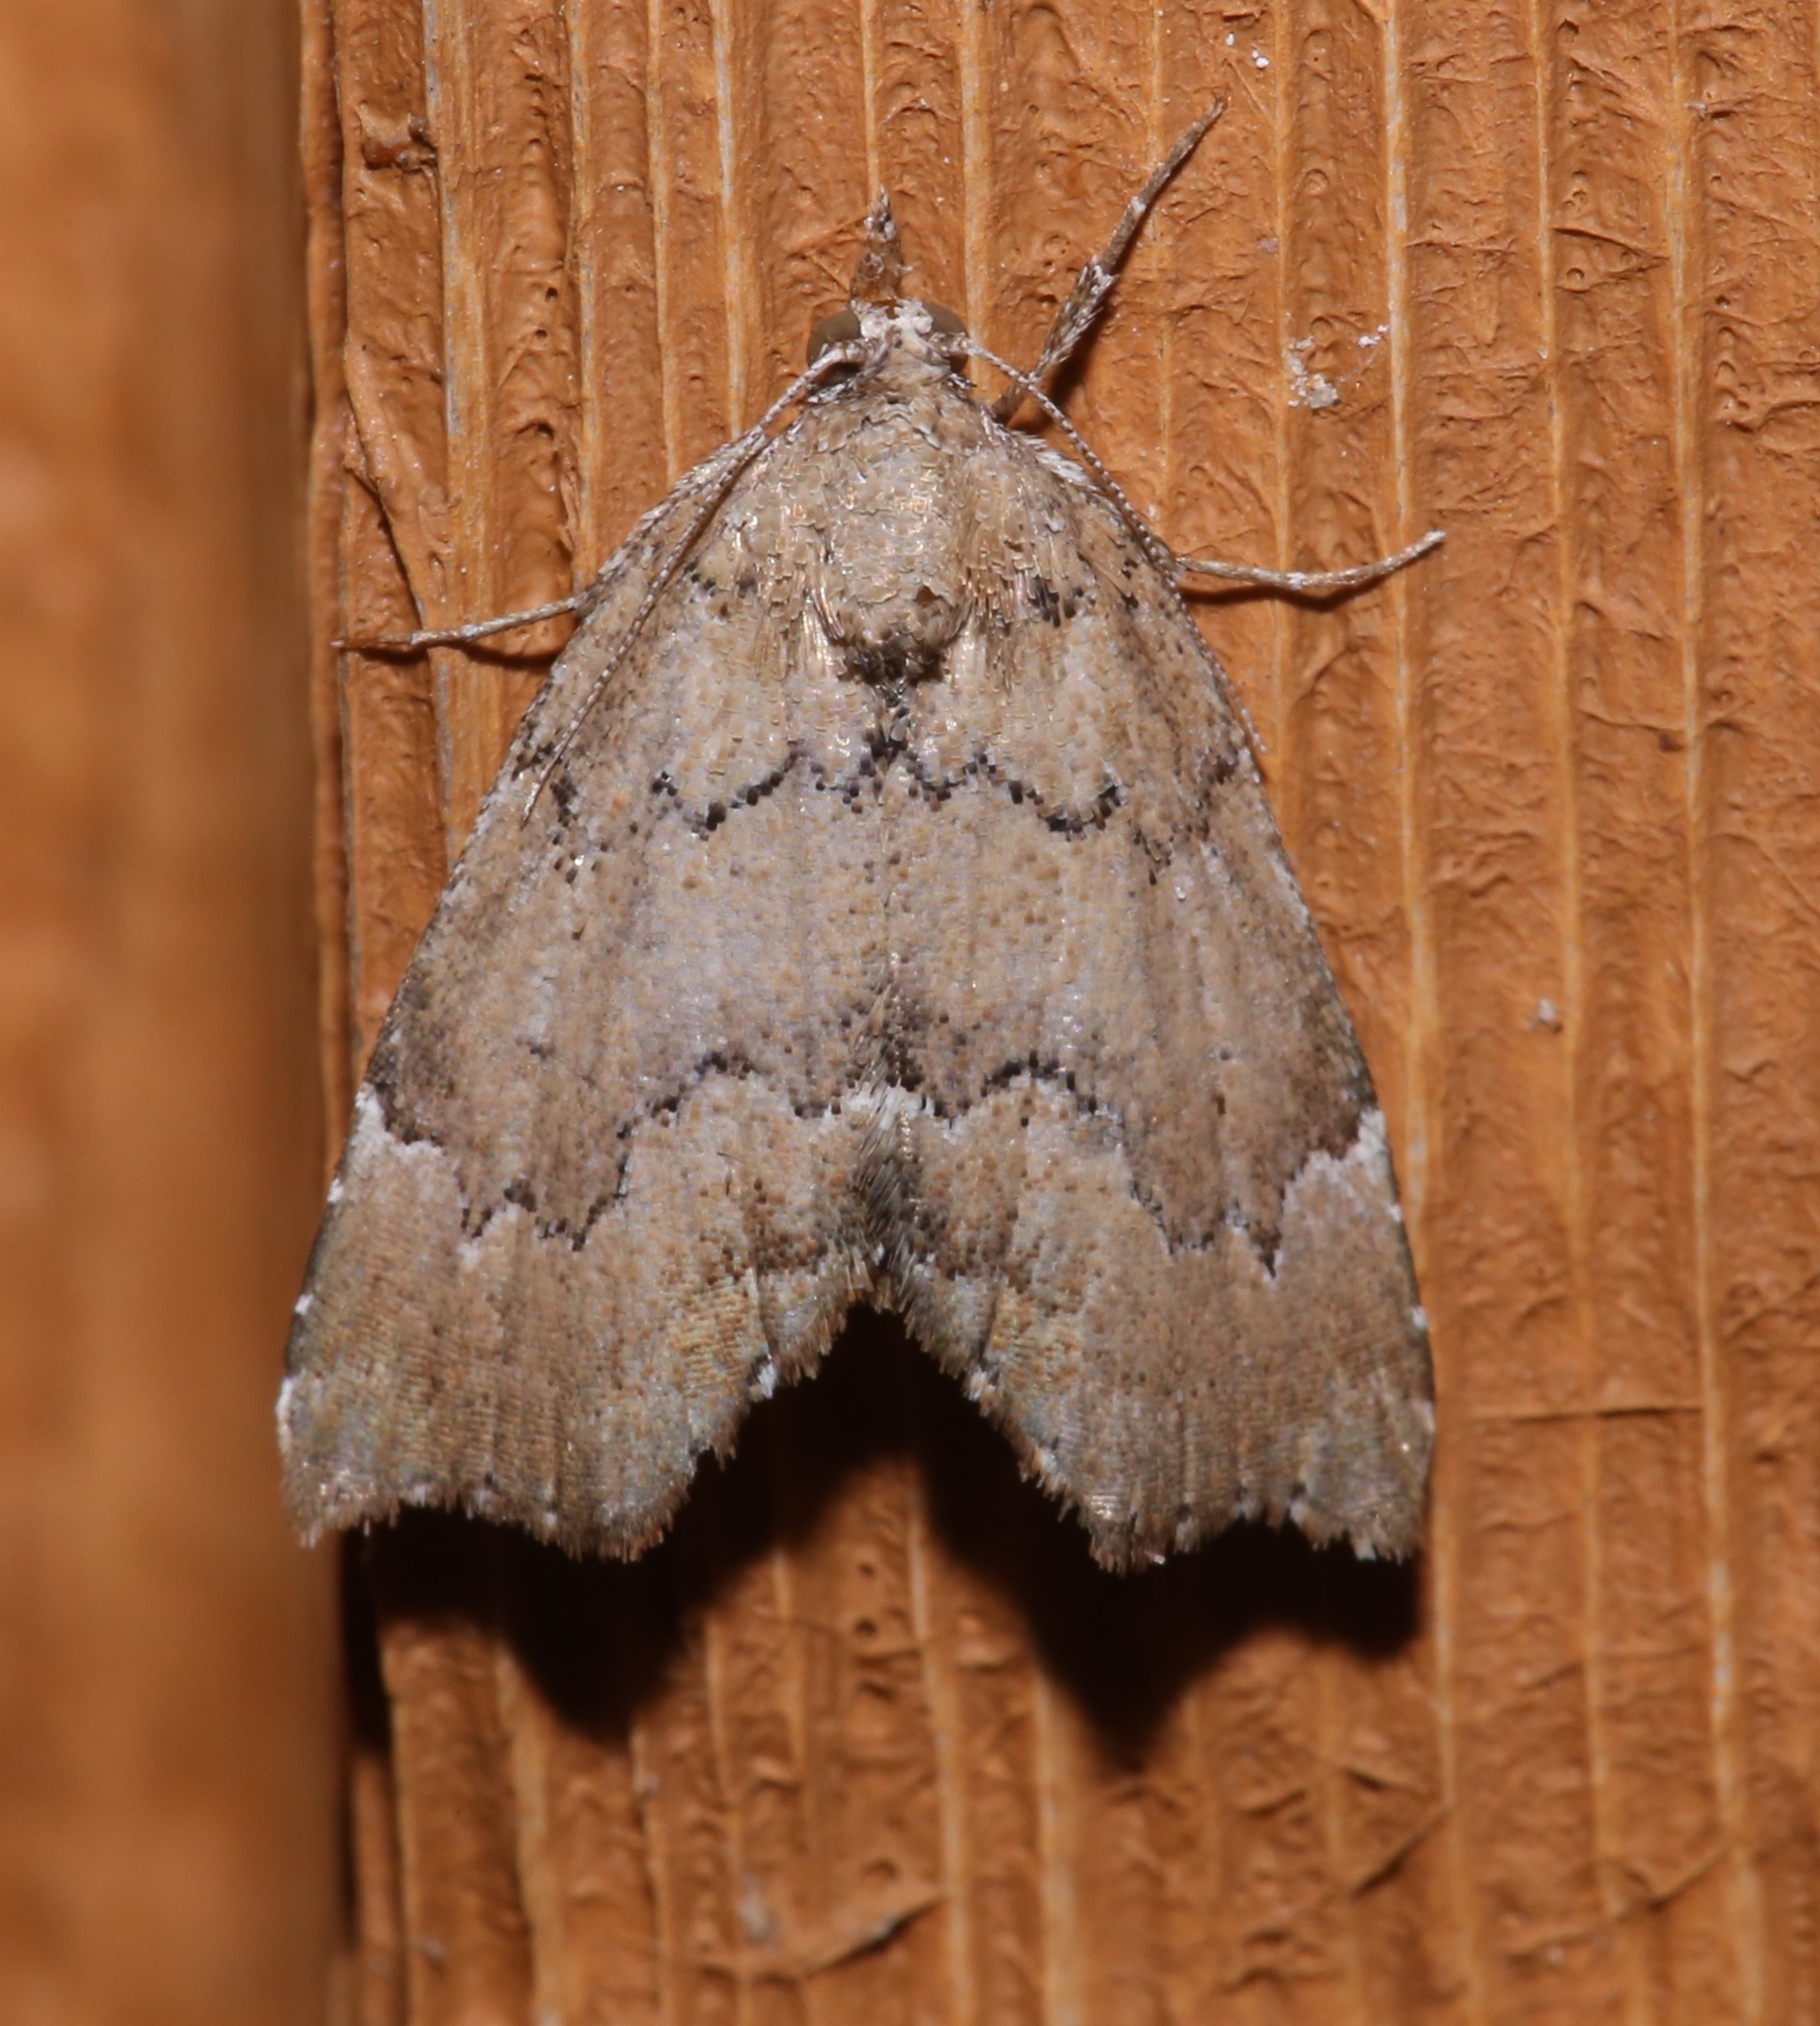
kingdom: Animalia
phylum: Arthropoda
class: Insecta
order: Lepidoptera
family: Erebidae
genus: Cutina
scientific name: Cutina aluticolor
